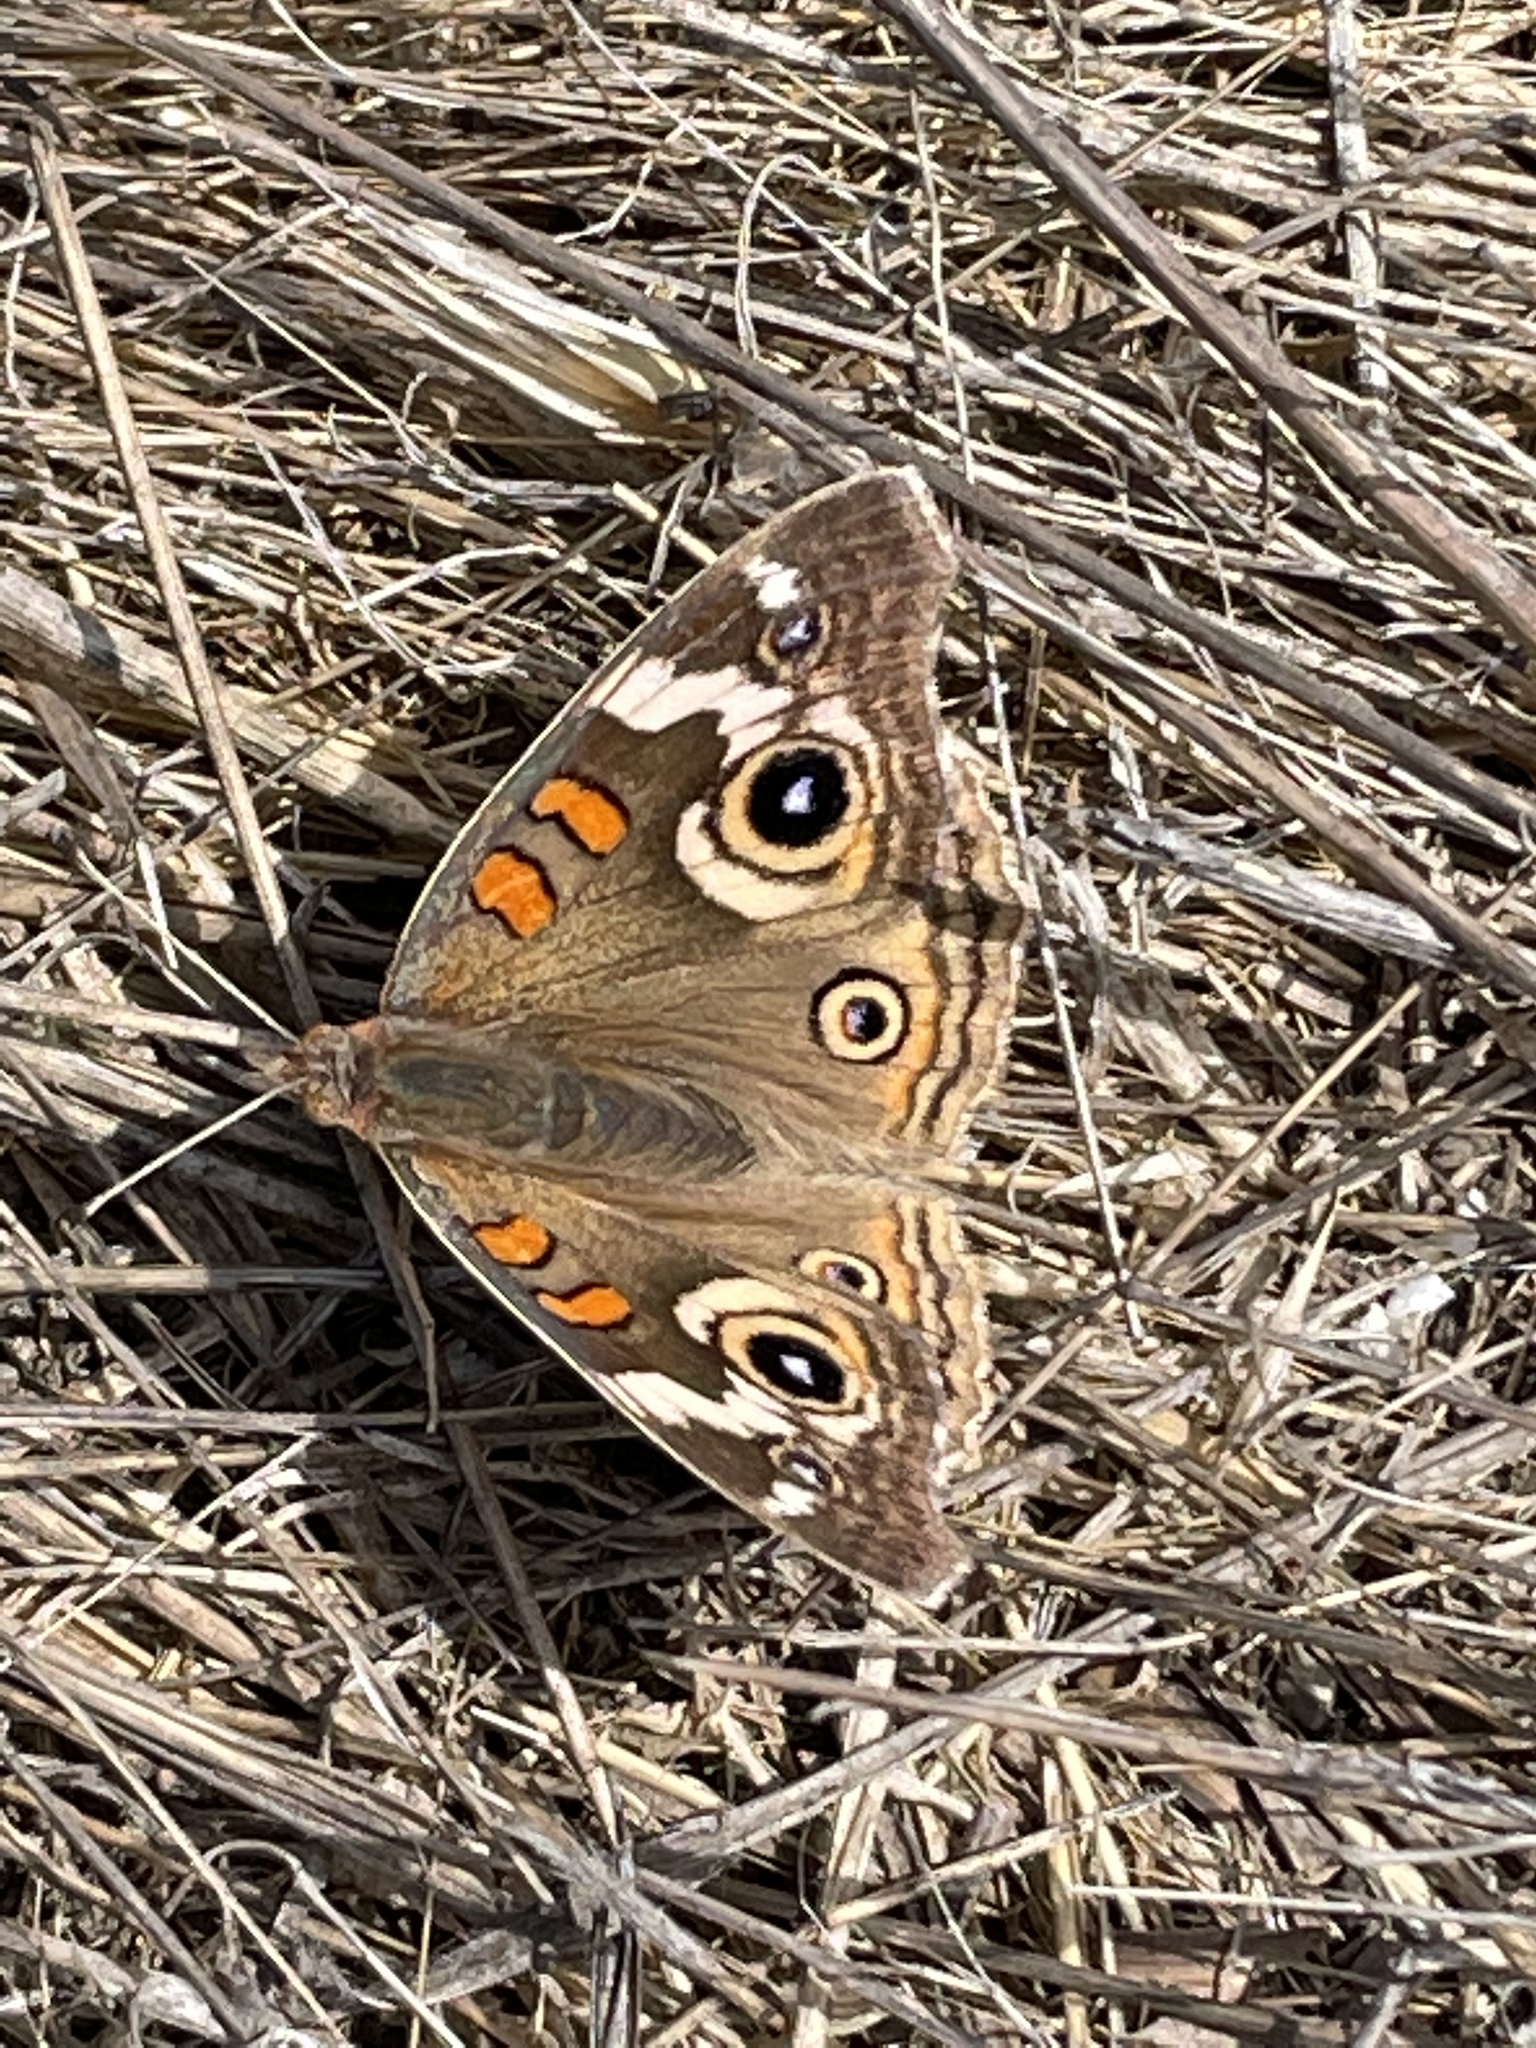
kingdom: Animalia
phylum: Arthropoda
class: Insecta
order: Lepidoptera
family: Nymphalidae
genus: Junonia
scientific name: Junonia grisea
